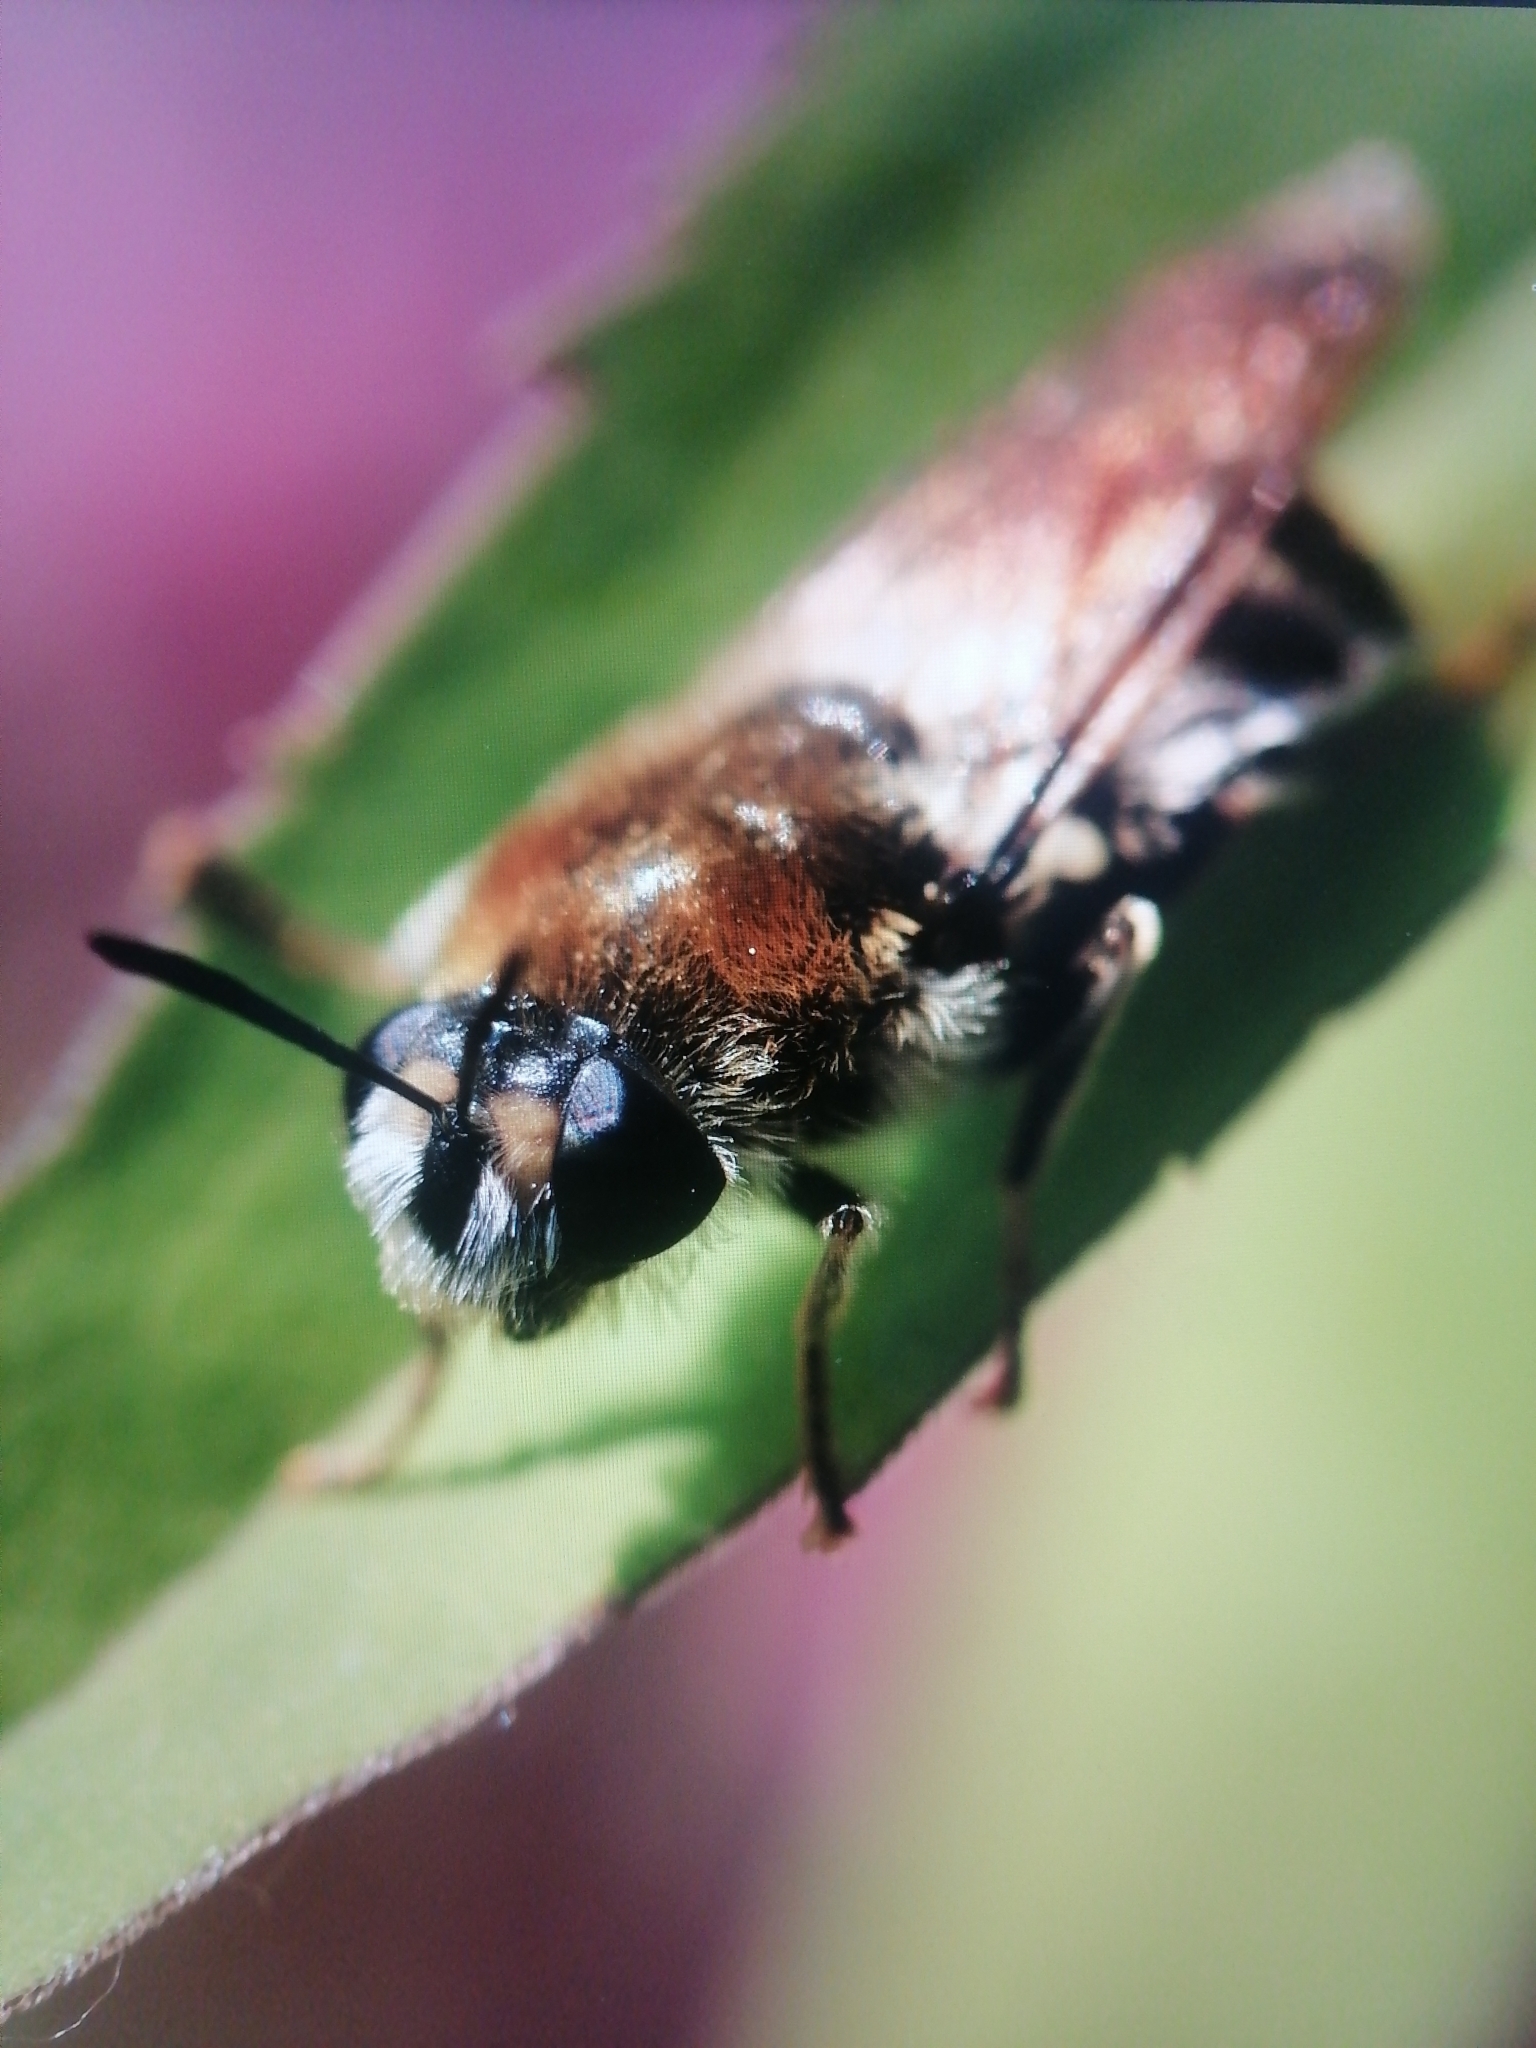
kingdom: Animalia
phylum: Arthropoda
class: Insecta
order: Diptera
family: Stratiomyidae
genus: Stratiomys
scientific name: Stratiomys longicornis
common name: Long-horned general
